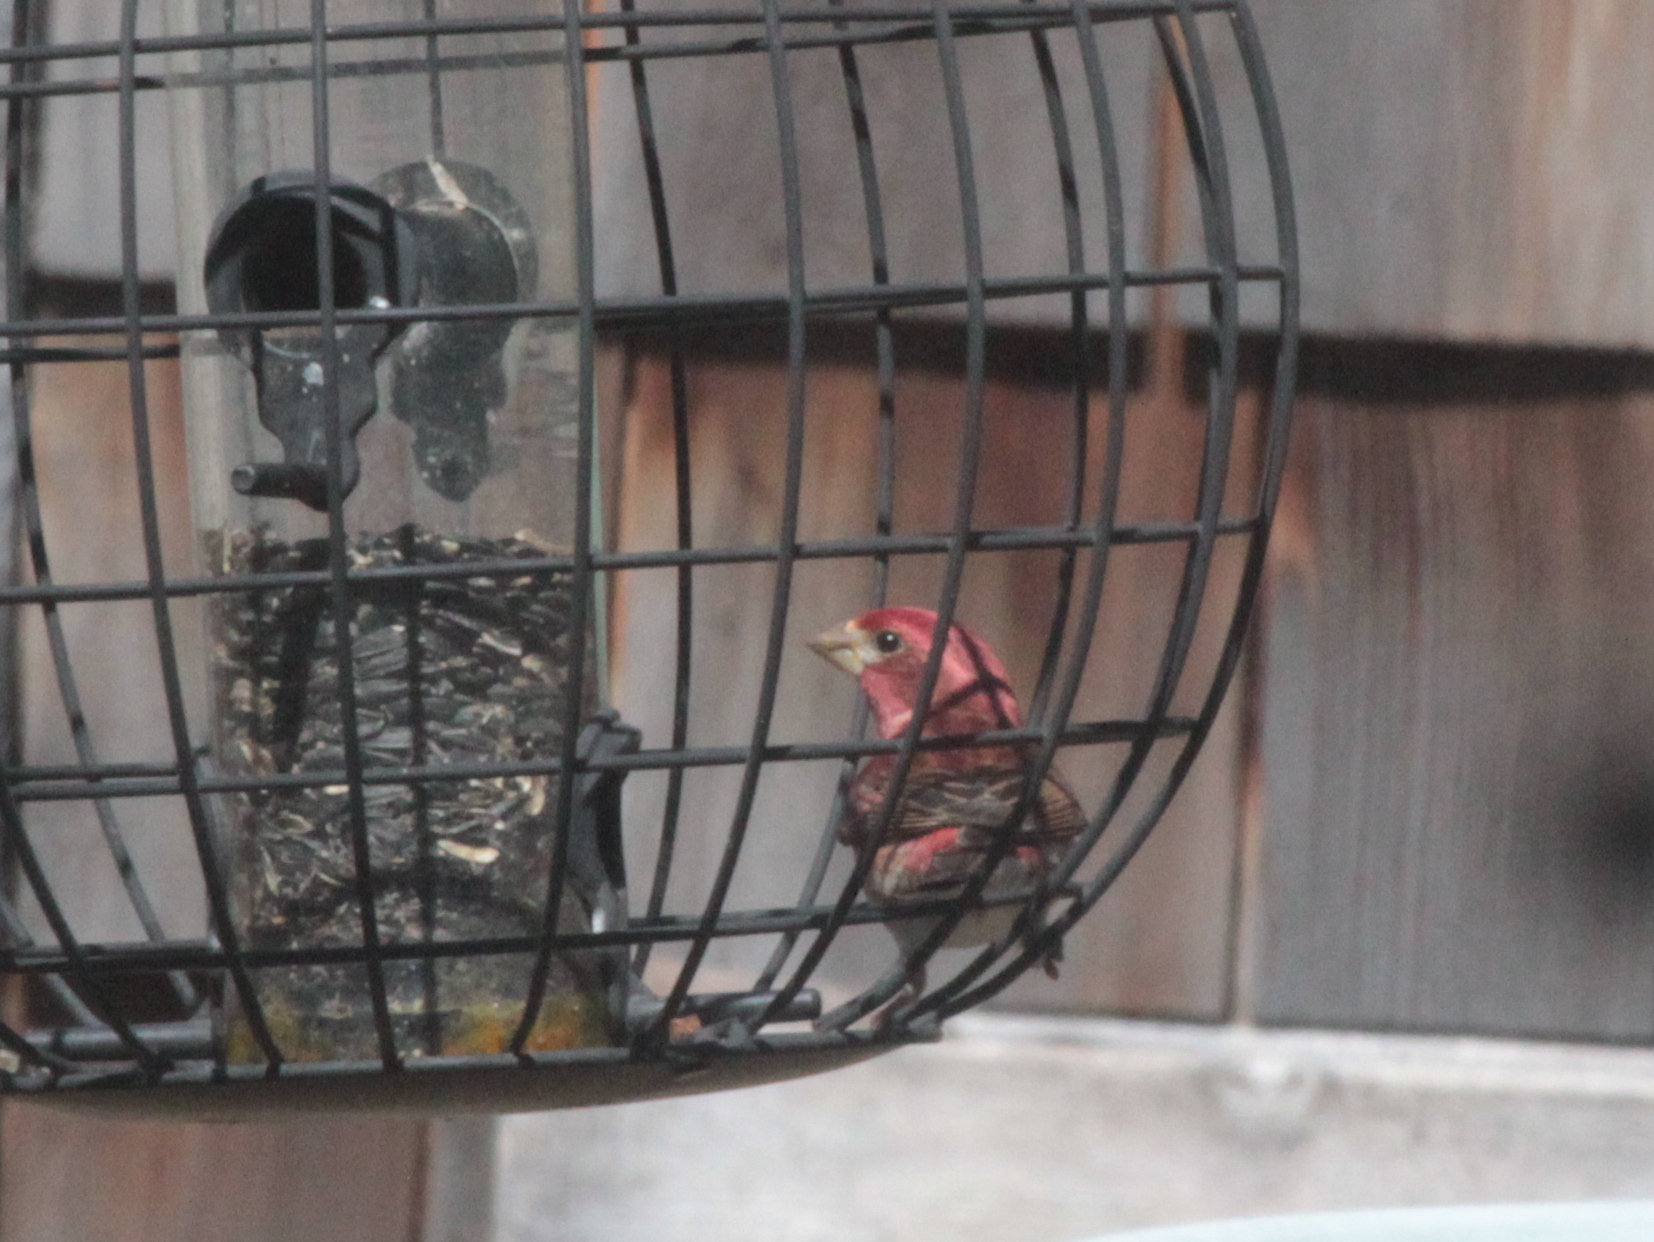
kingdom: Animalia
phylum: Chordata
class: Aves
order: Passeriformes
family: Fringillidae
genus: Haemorhous
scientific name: Haemorhous purpureus
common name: Purple finch
